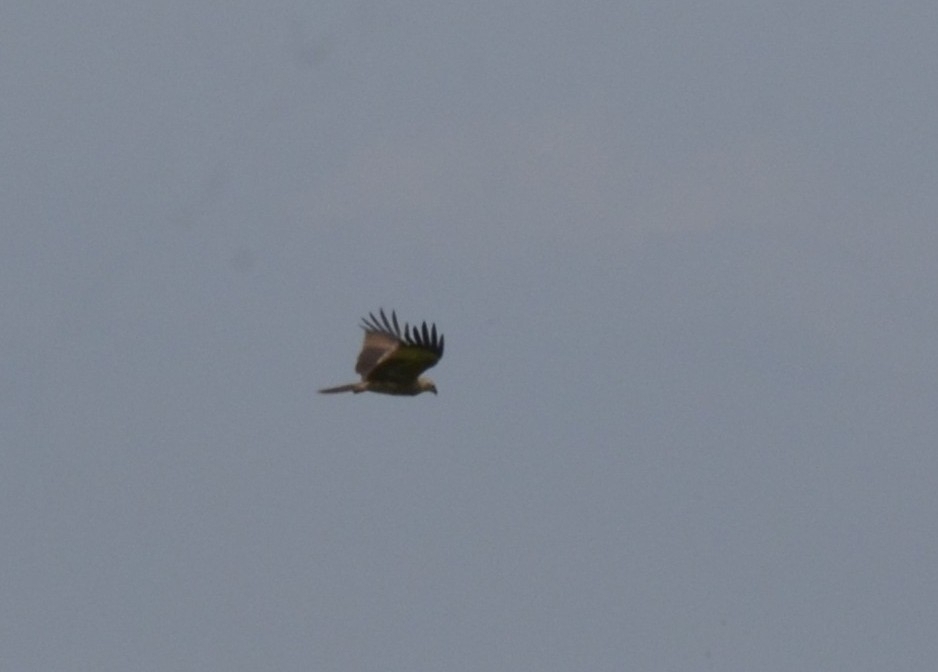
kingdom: Animalia
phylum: Chordata
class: Aves
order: Accipitriformes
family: Accipitridae
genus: Haliastur
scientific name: Haliastur indus
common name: Brahminy kite
